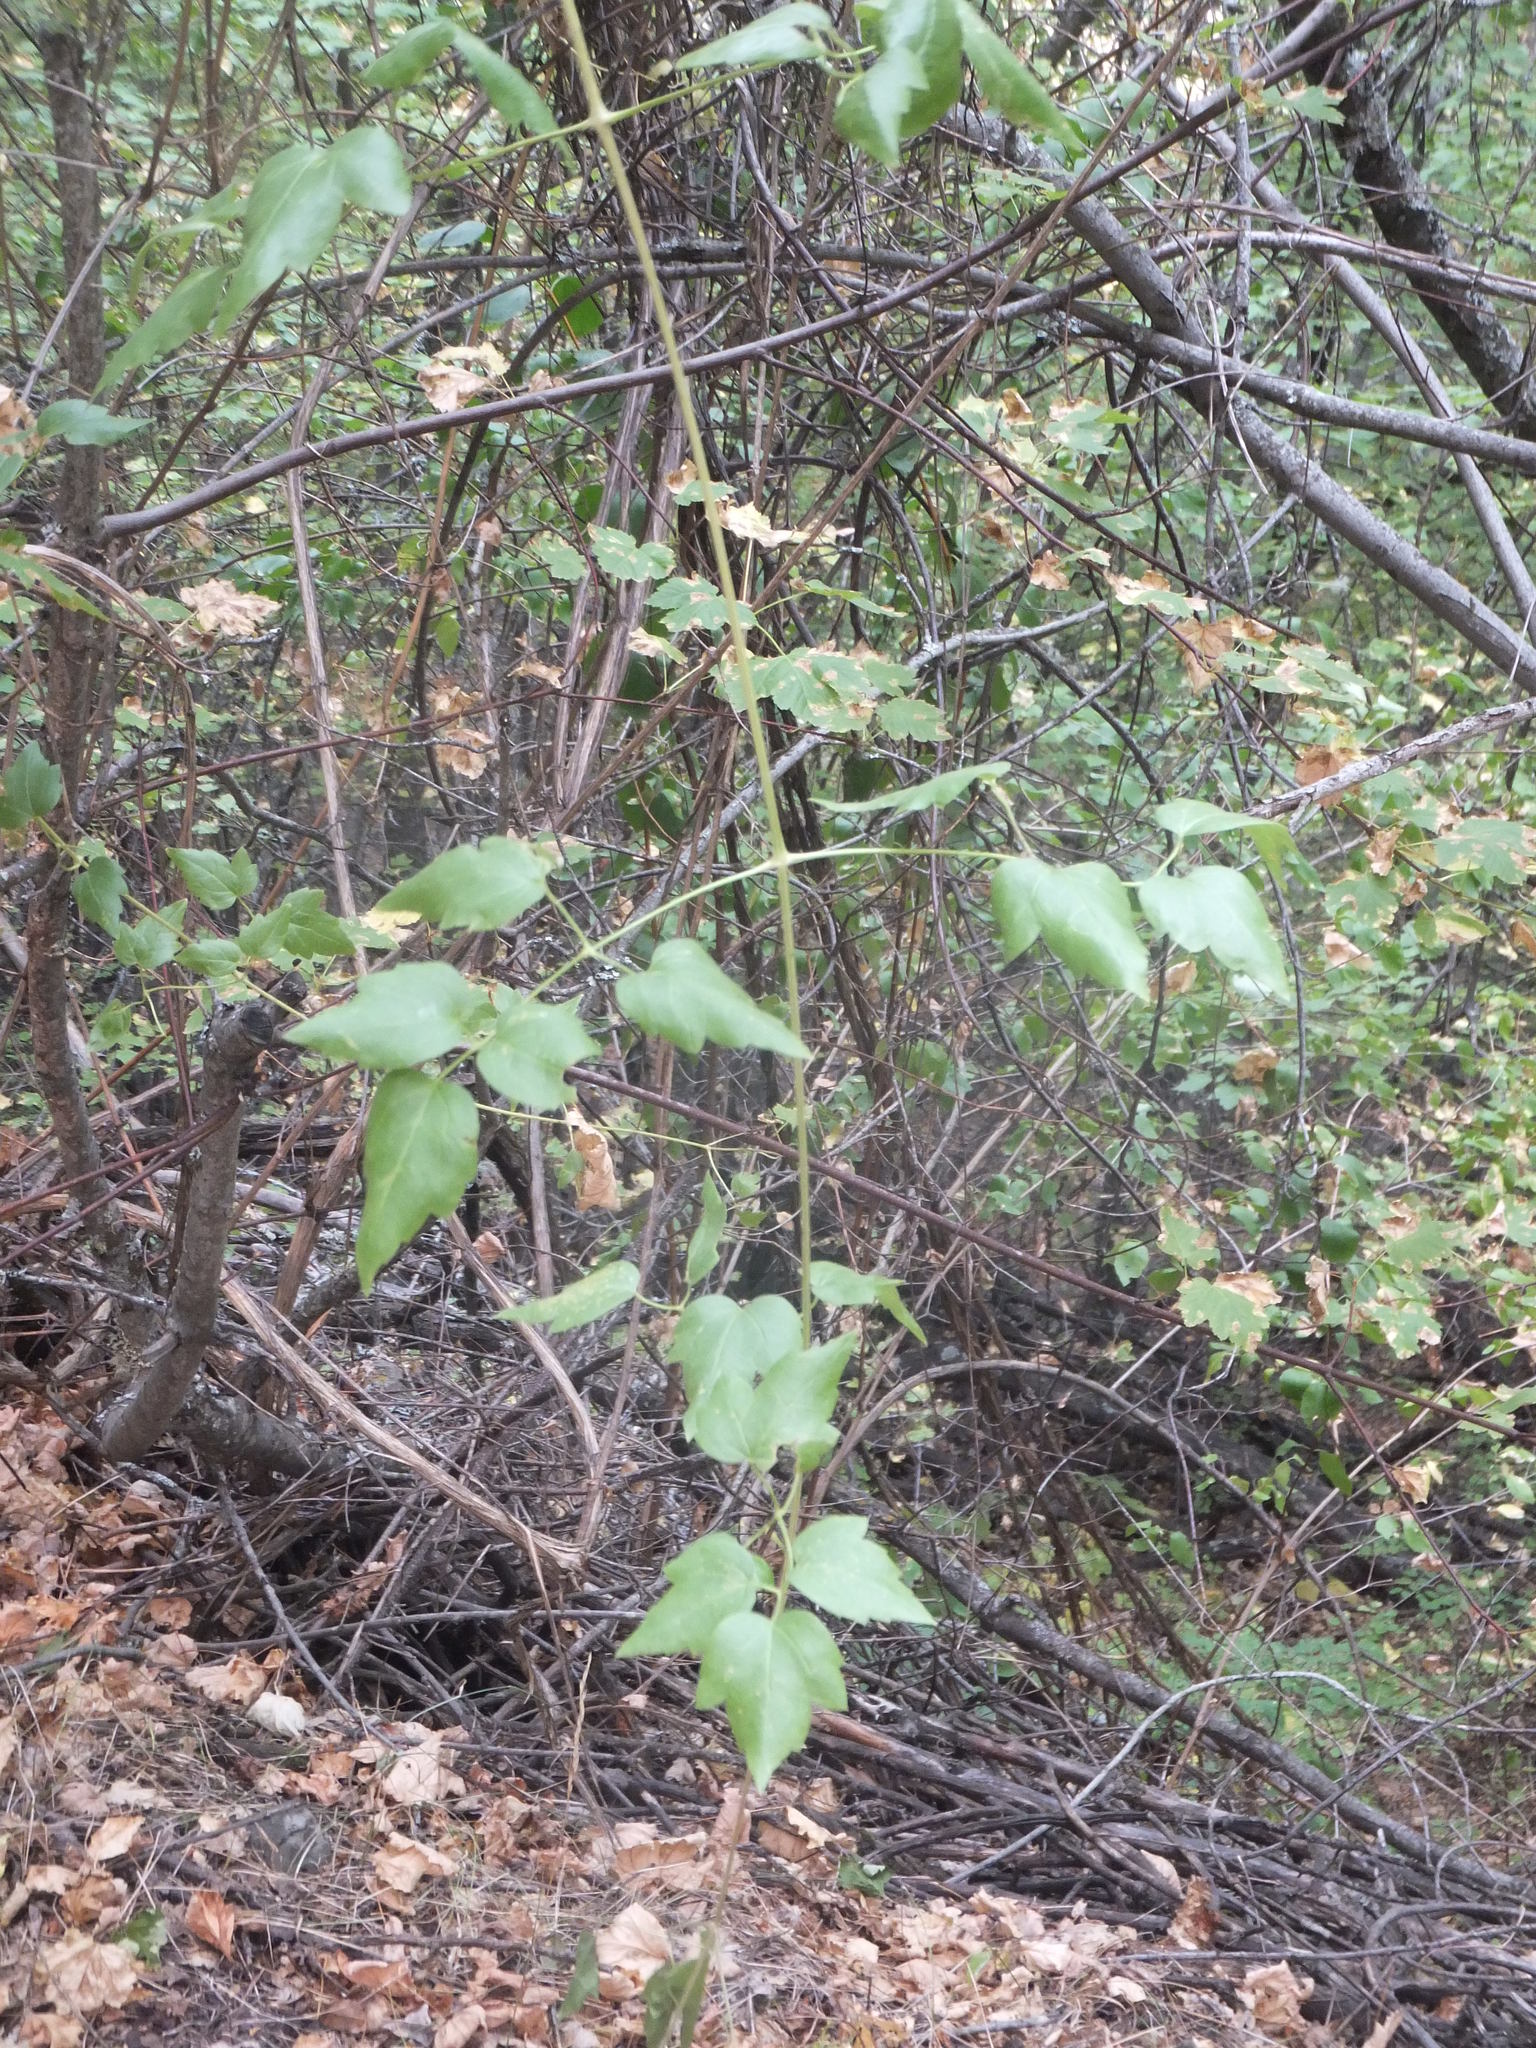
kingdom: Plantae
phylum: Tracheophyta
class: Magnoliopsida
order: Ranunculales
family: Ranunculaceae
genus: Clematis
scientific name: Clematis ligusticifolia
